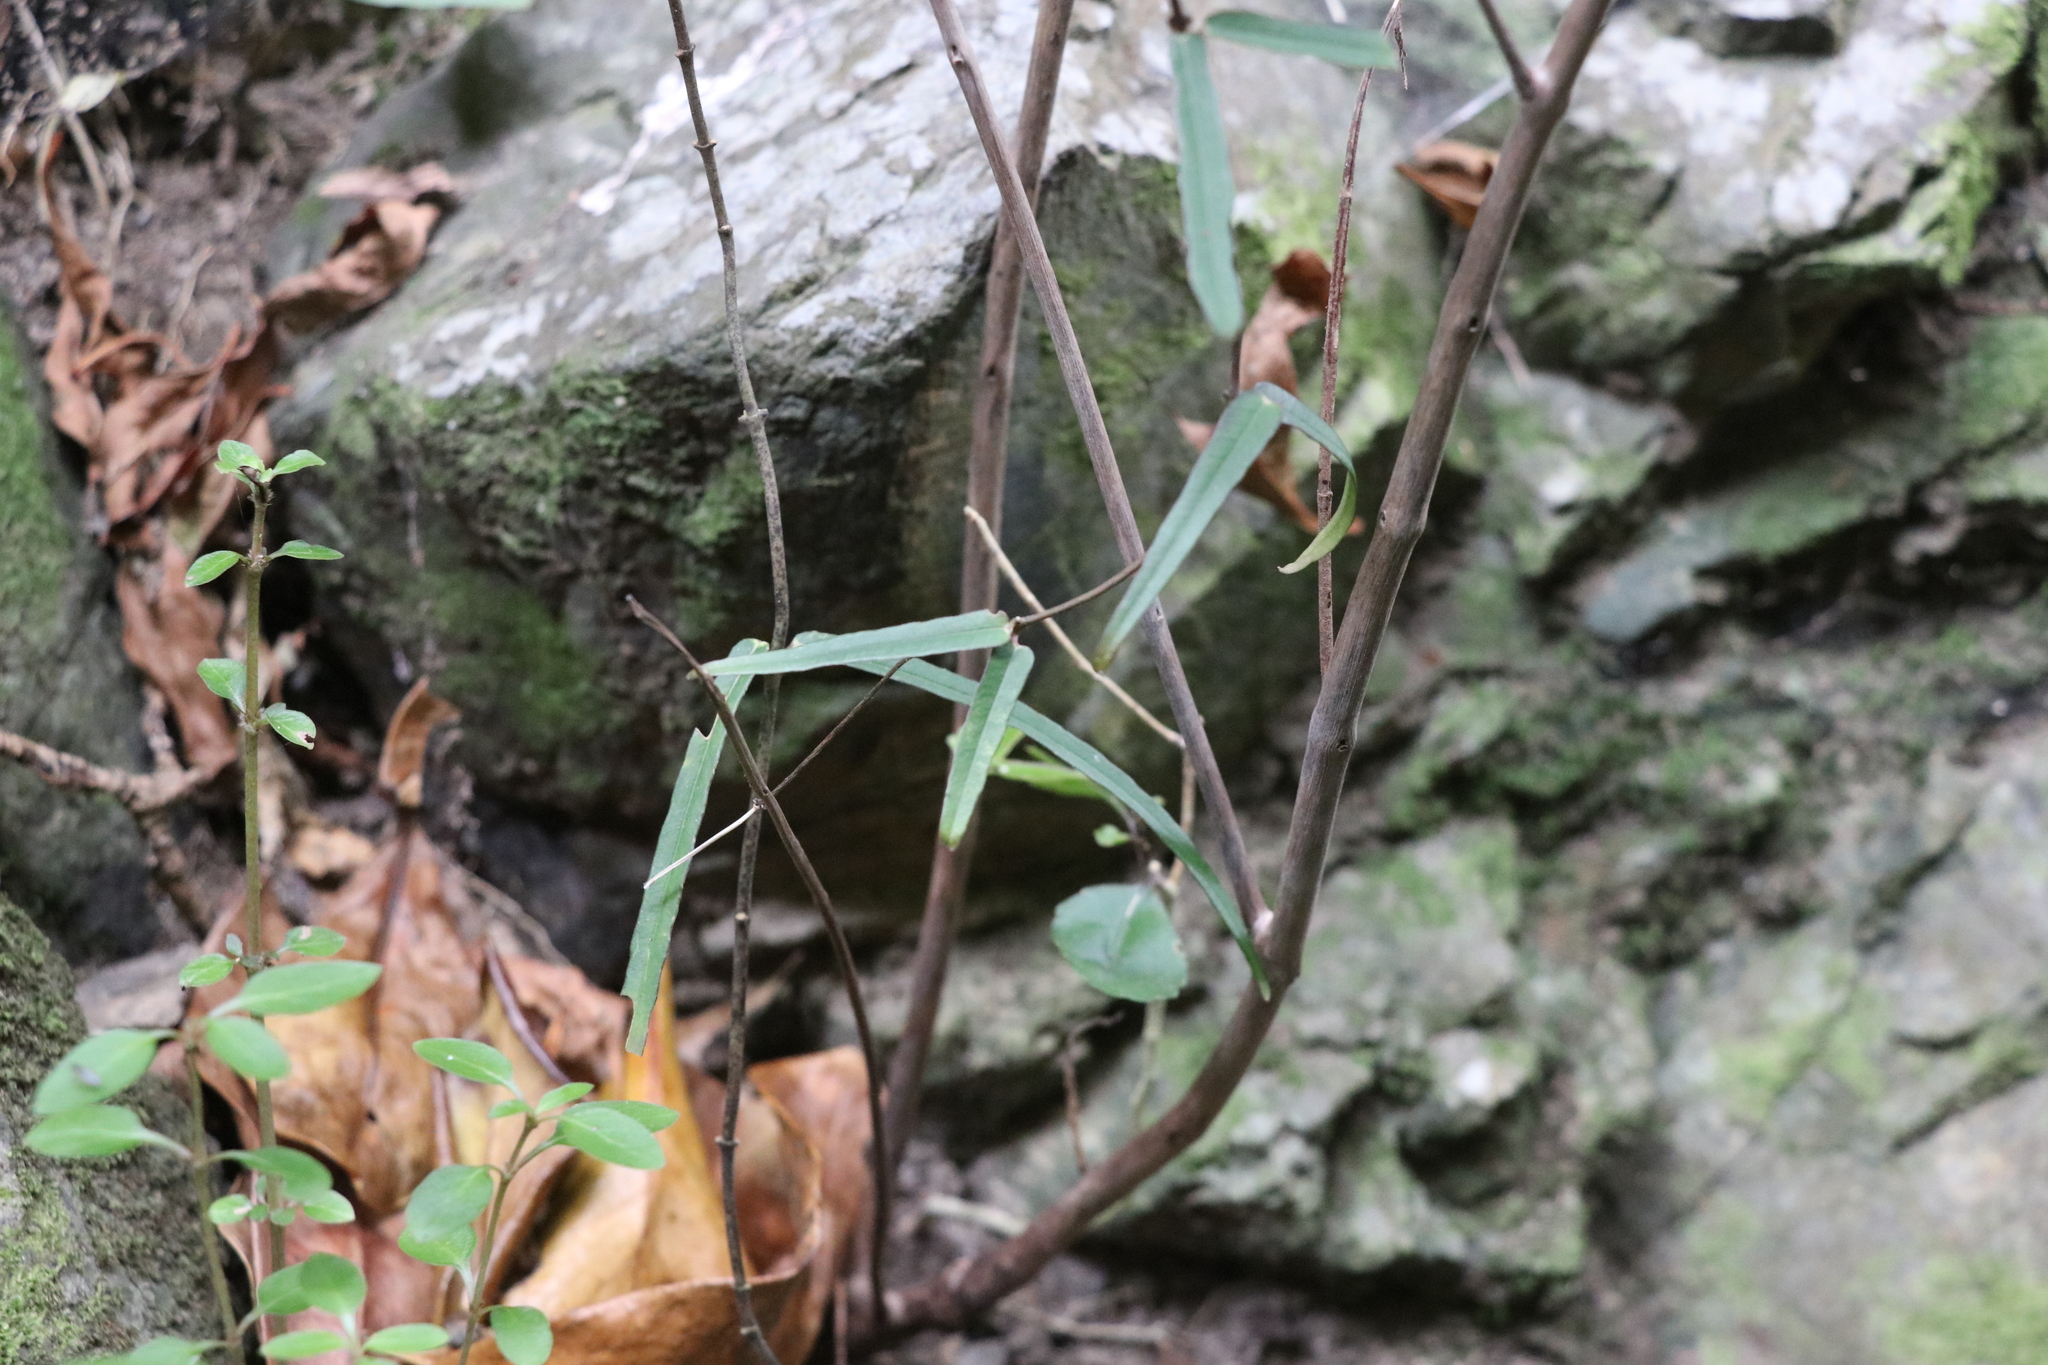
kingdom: Plantae
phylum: Tracheophyta
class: Magnoliopsida
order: Gentianales
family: Apocynaceae
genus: Parsonsia
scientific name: Parsonsia heterophylla
